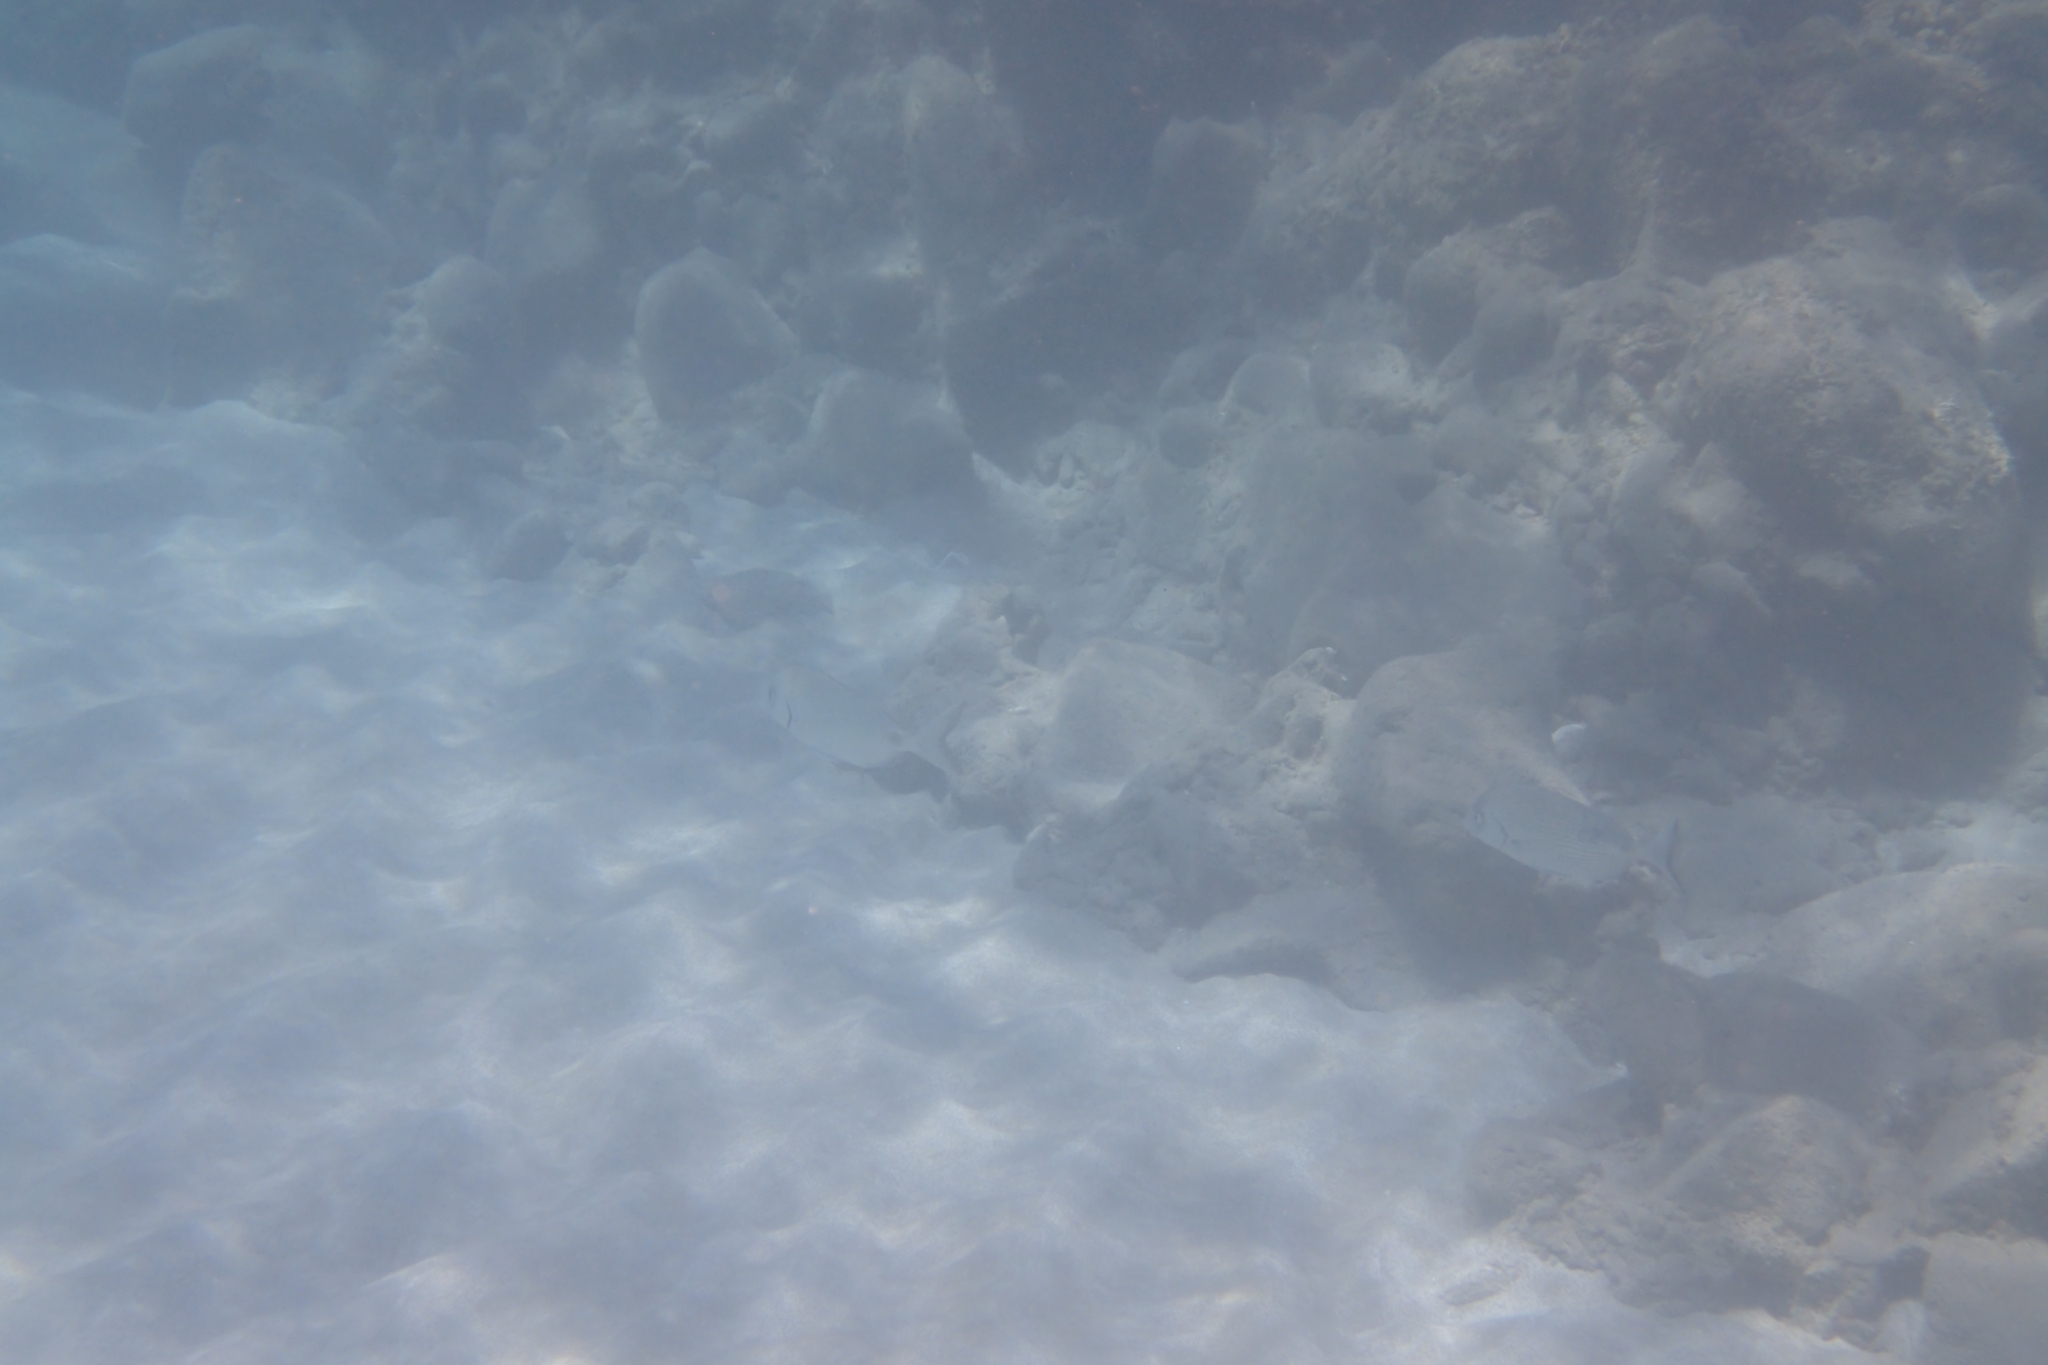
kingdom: Animalia
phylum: Chordata
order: Perciformes
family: Sparidae
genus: Diplodus
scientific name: Diplodus sargus
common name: White seabream
